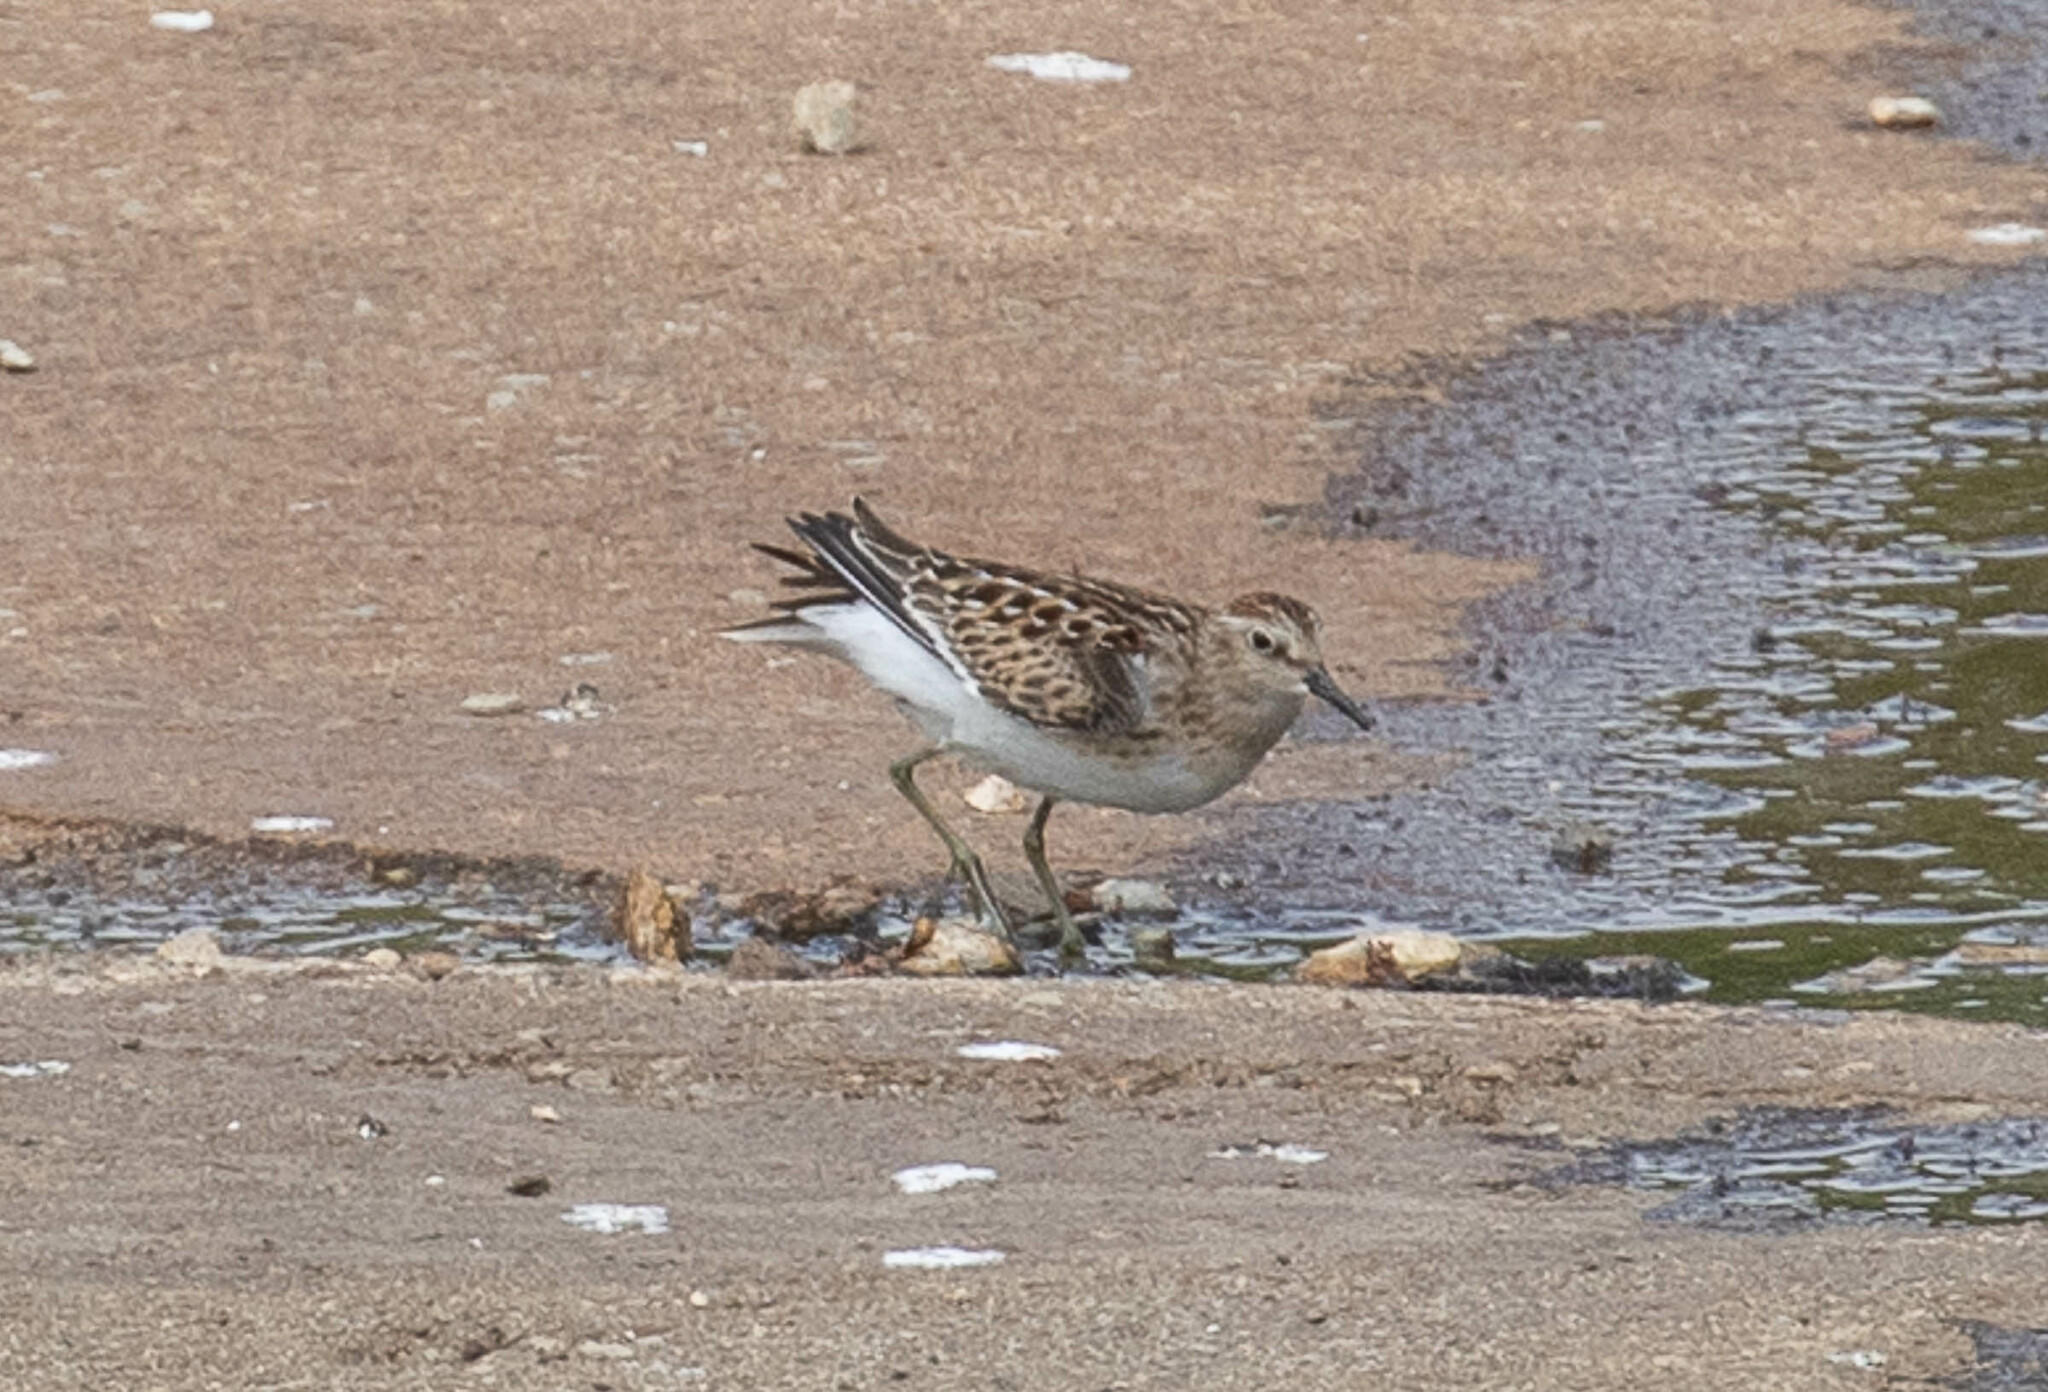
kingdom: Animalia
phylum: Chordata
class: Aves
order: Charadriiformes
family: Scolopacidae
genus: Calidris
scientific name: Calidris minutilla
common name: Least sandpiper
